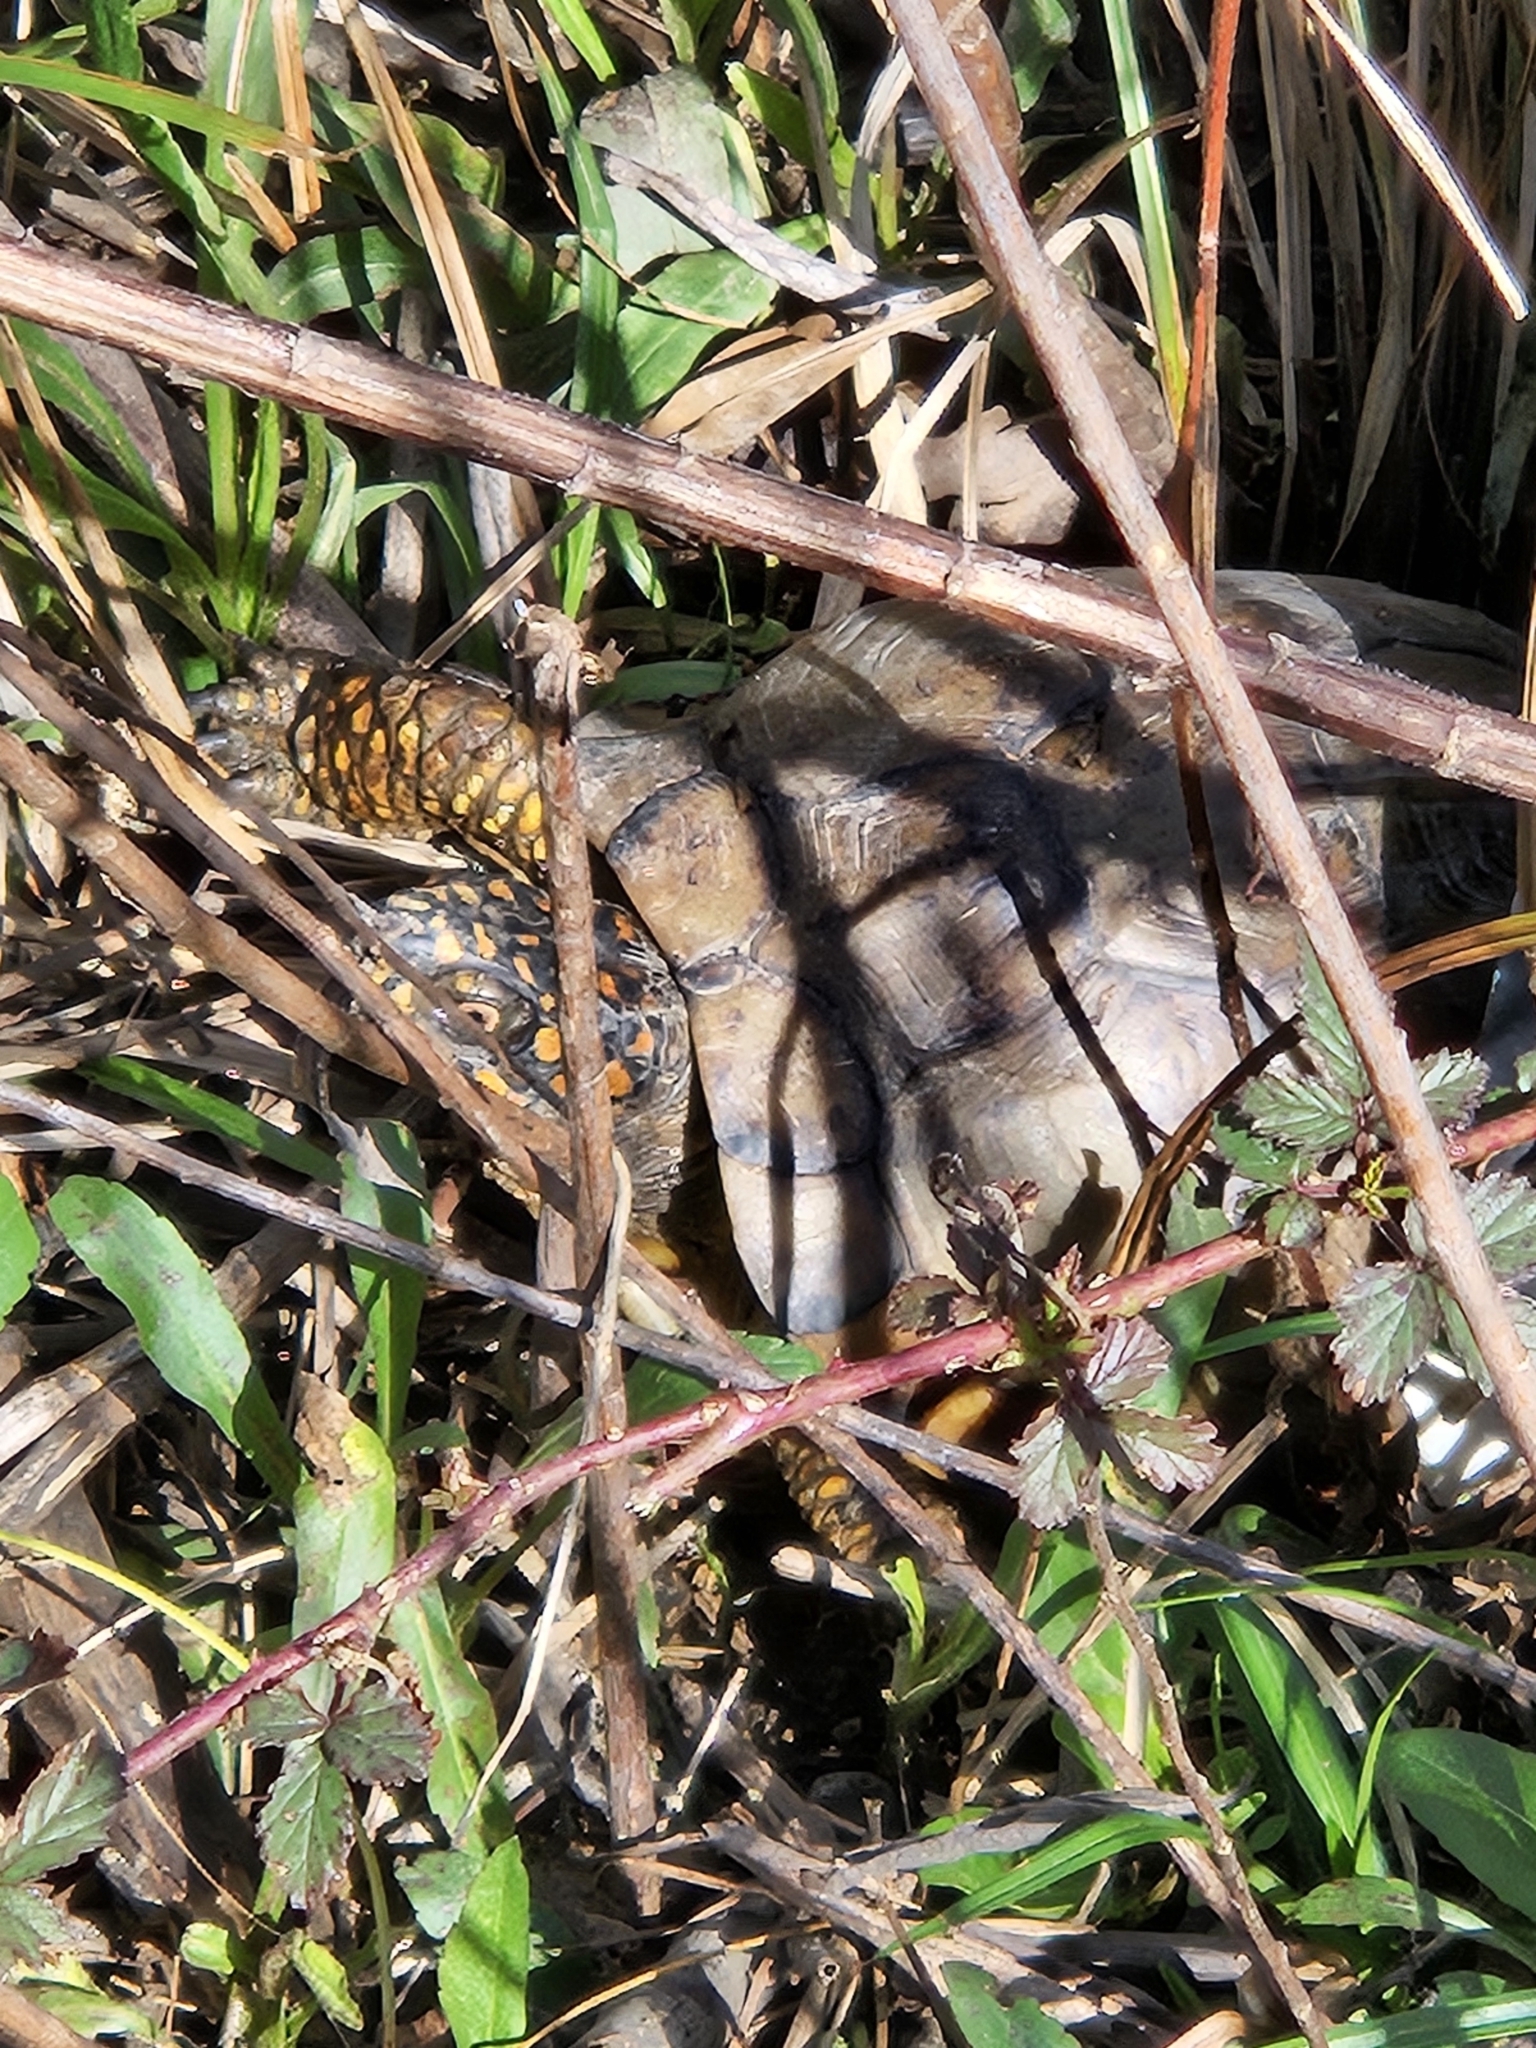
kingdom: Animalia
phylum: Chordata
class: Testudines
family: Emydidae
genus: Terrapene
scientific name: Terrapene carolina
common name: Common box turtle
